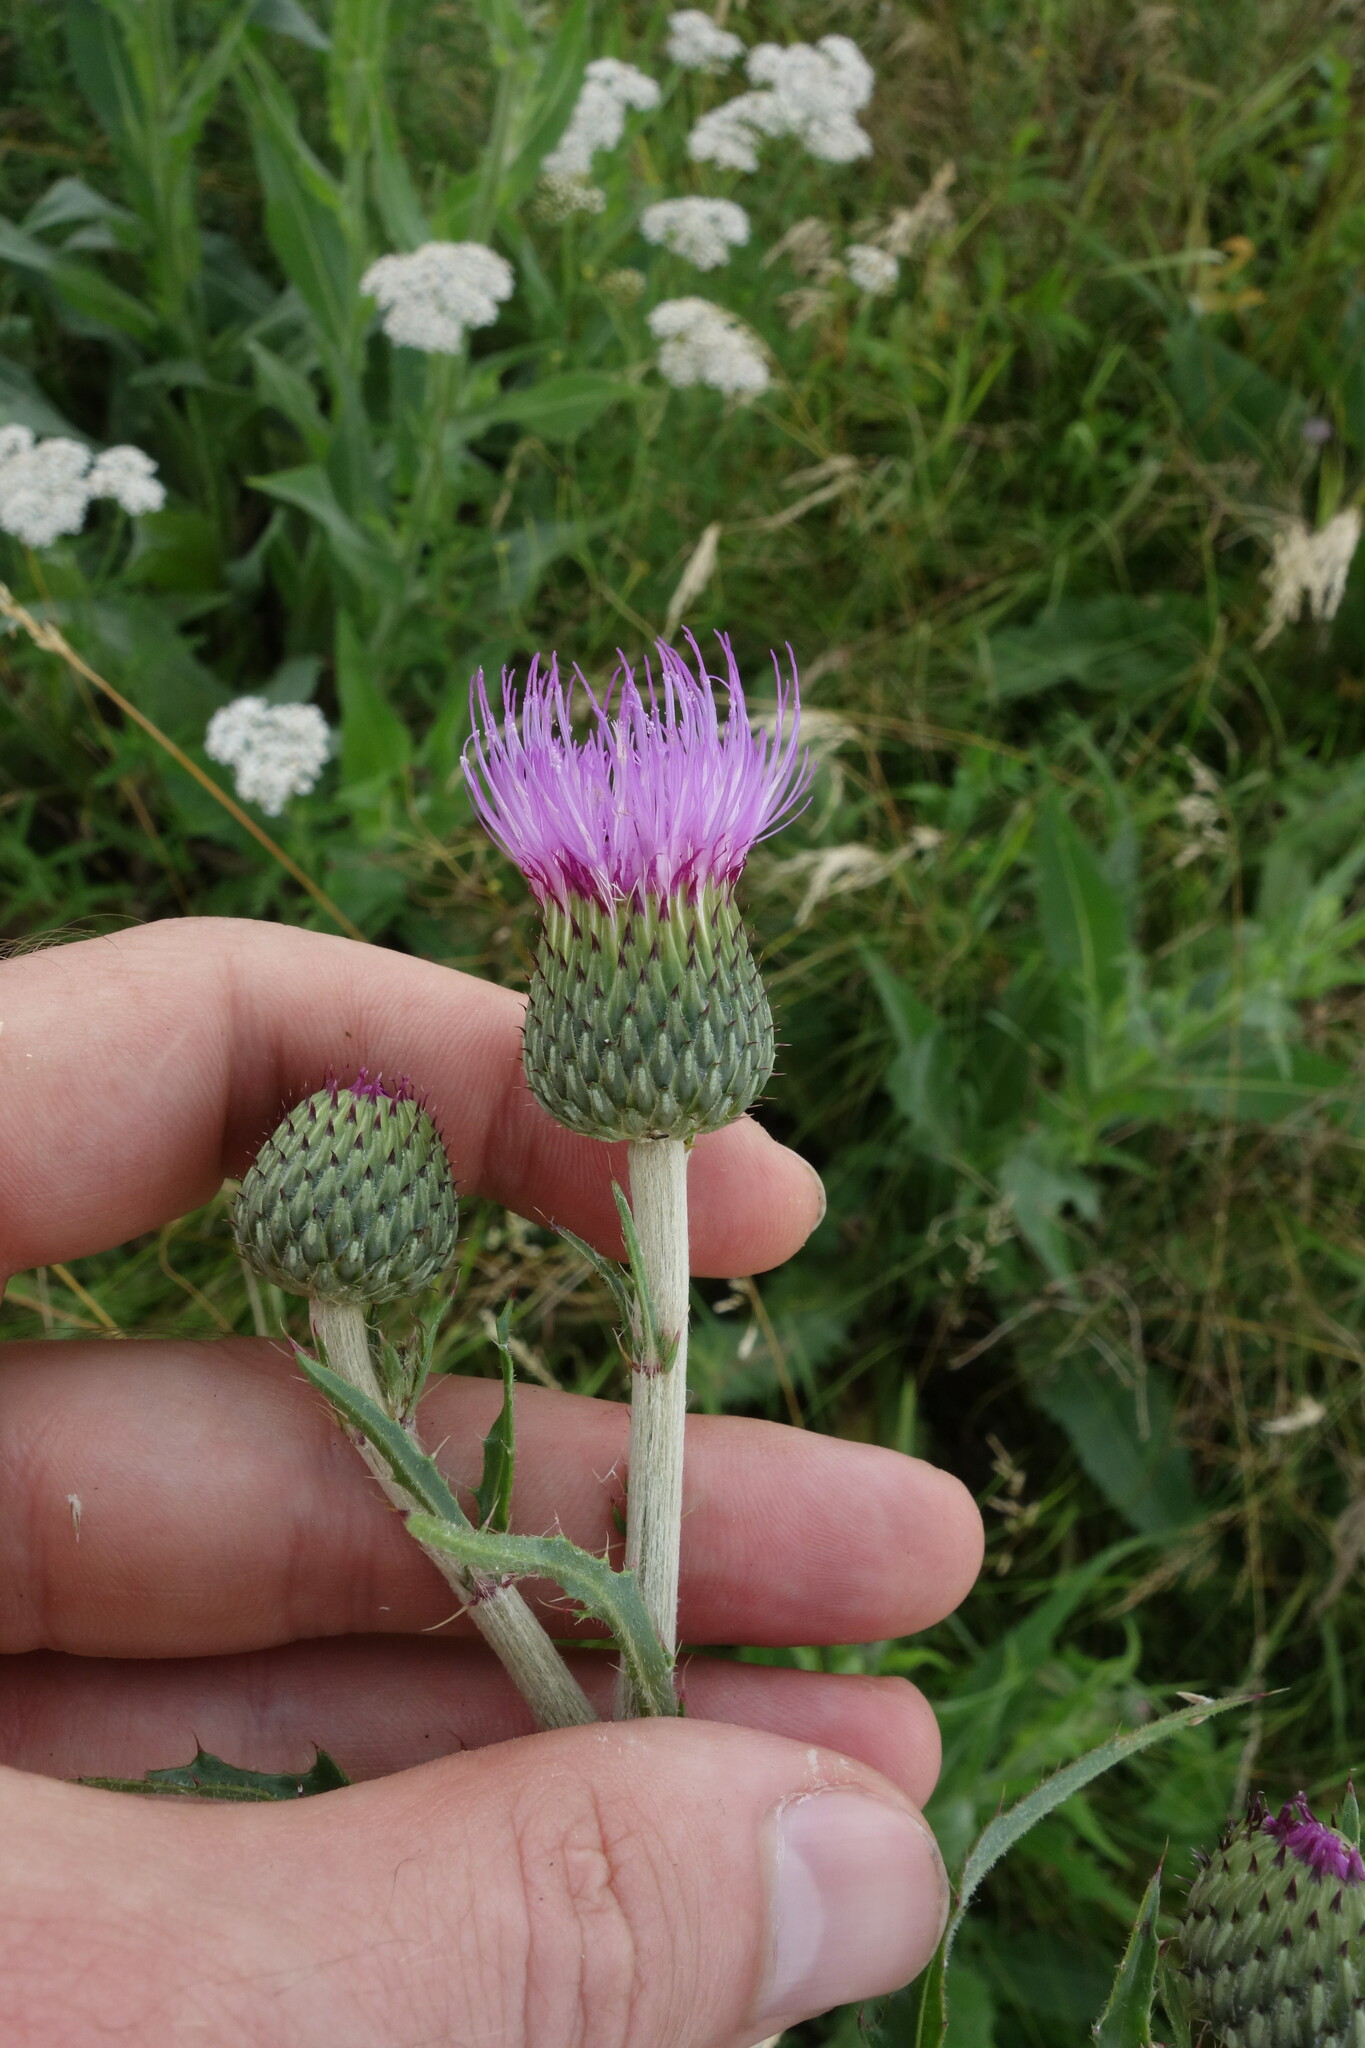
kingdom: Plantae
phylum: Tracheophyta
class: Magnoliopsida
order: Asterales
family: Asteraceae
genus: Cirsium
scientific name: Cirsium canum
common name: Queen anne's thistle
